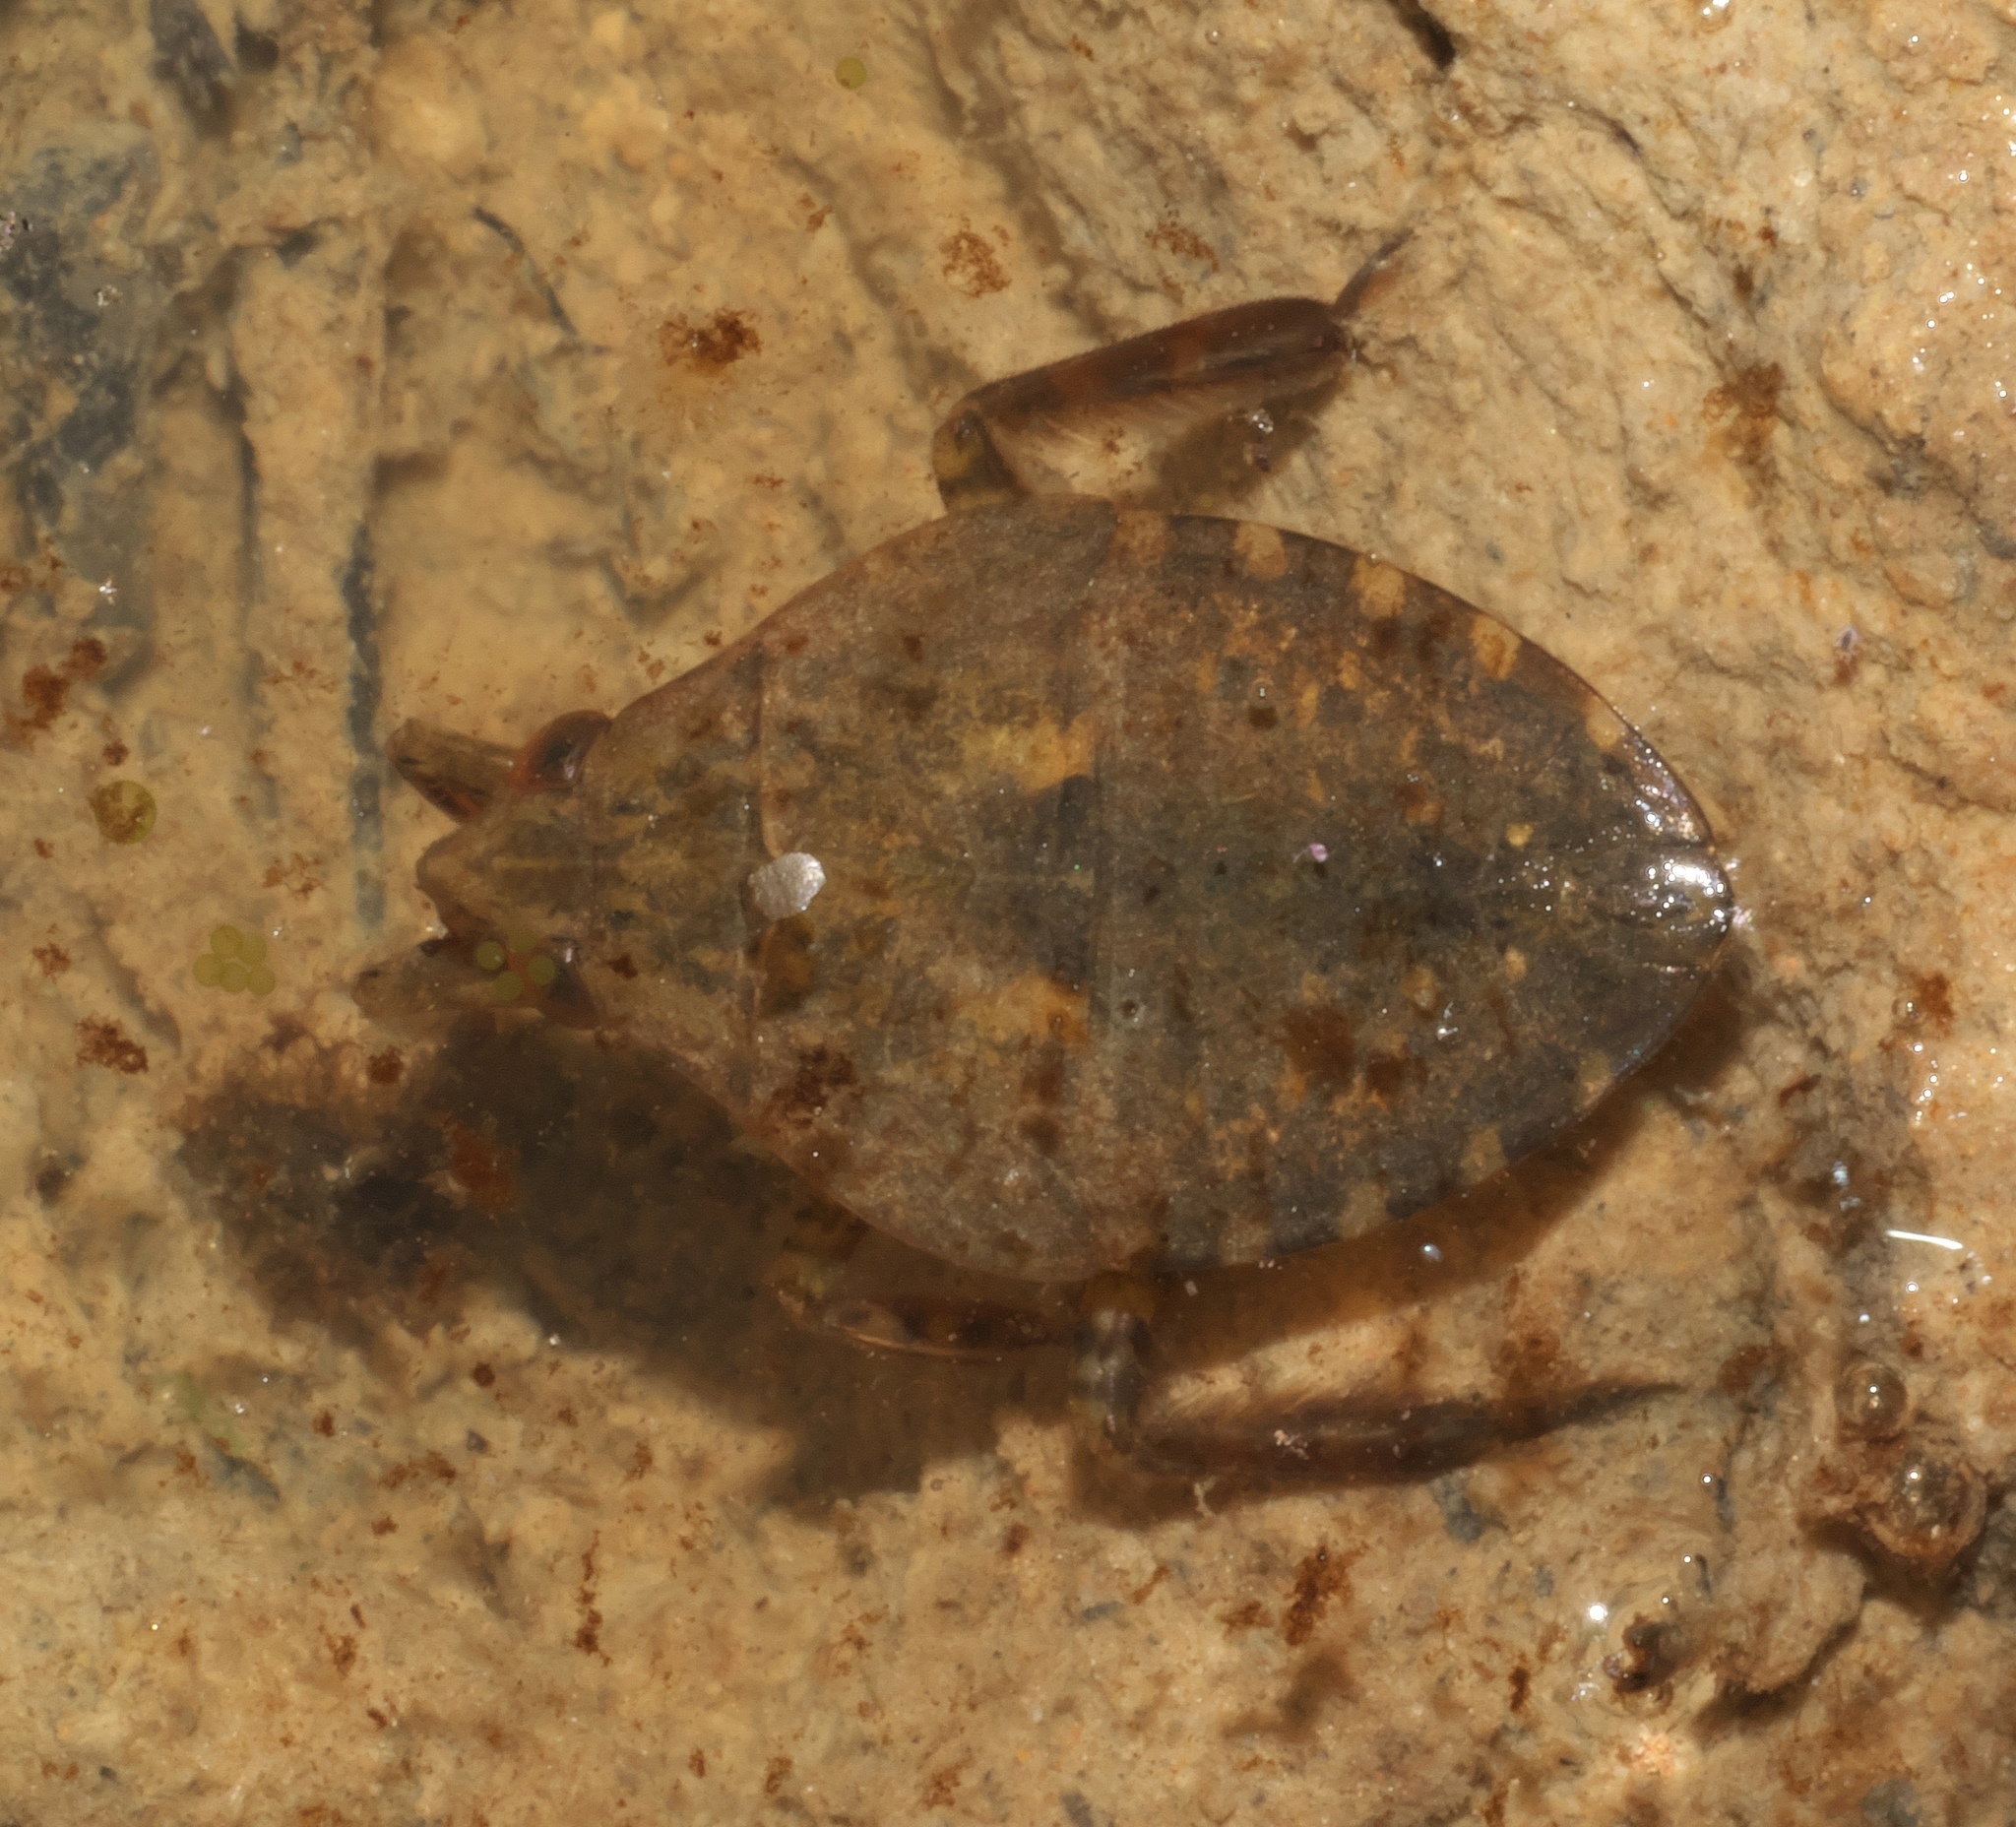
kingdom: Animalia
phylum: Arthropoda
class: Insecta
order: Hemiptera
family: Belostomatidae
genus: Belostoma
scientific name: Belostoma
